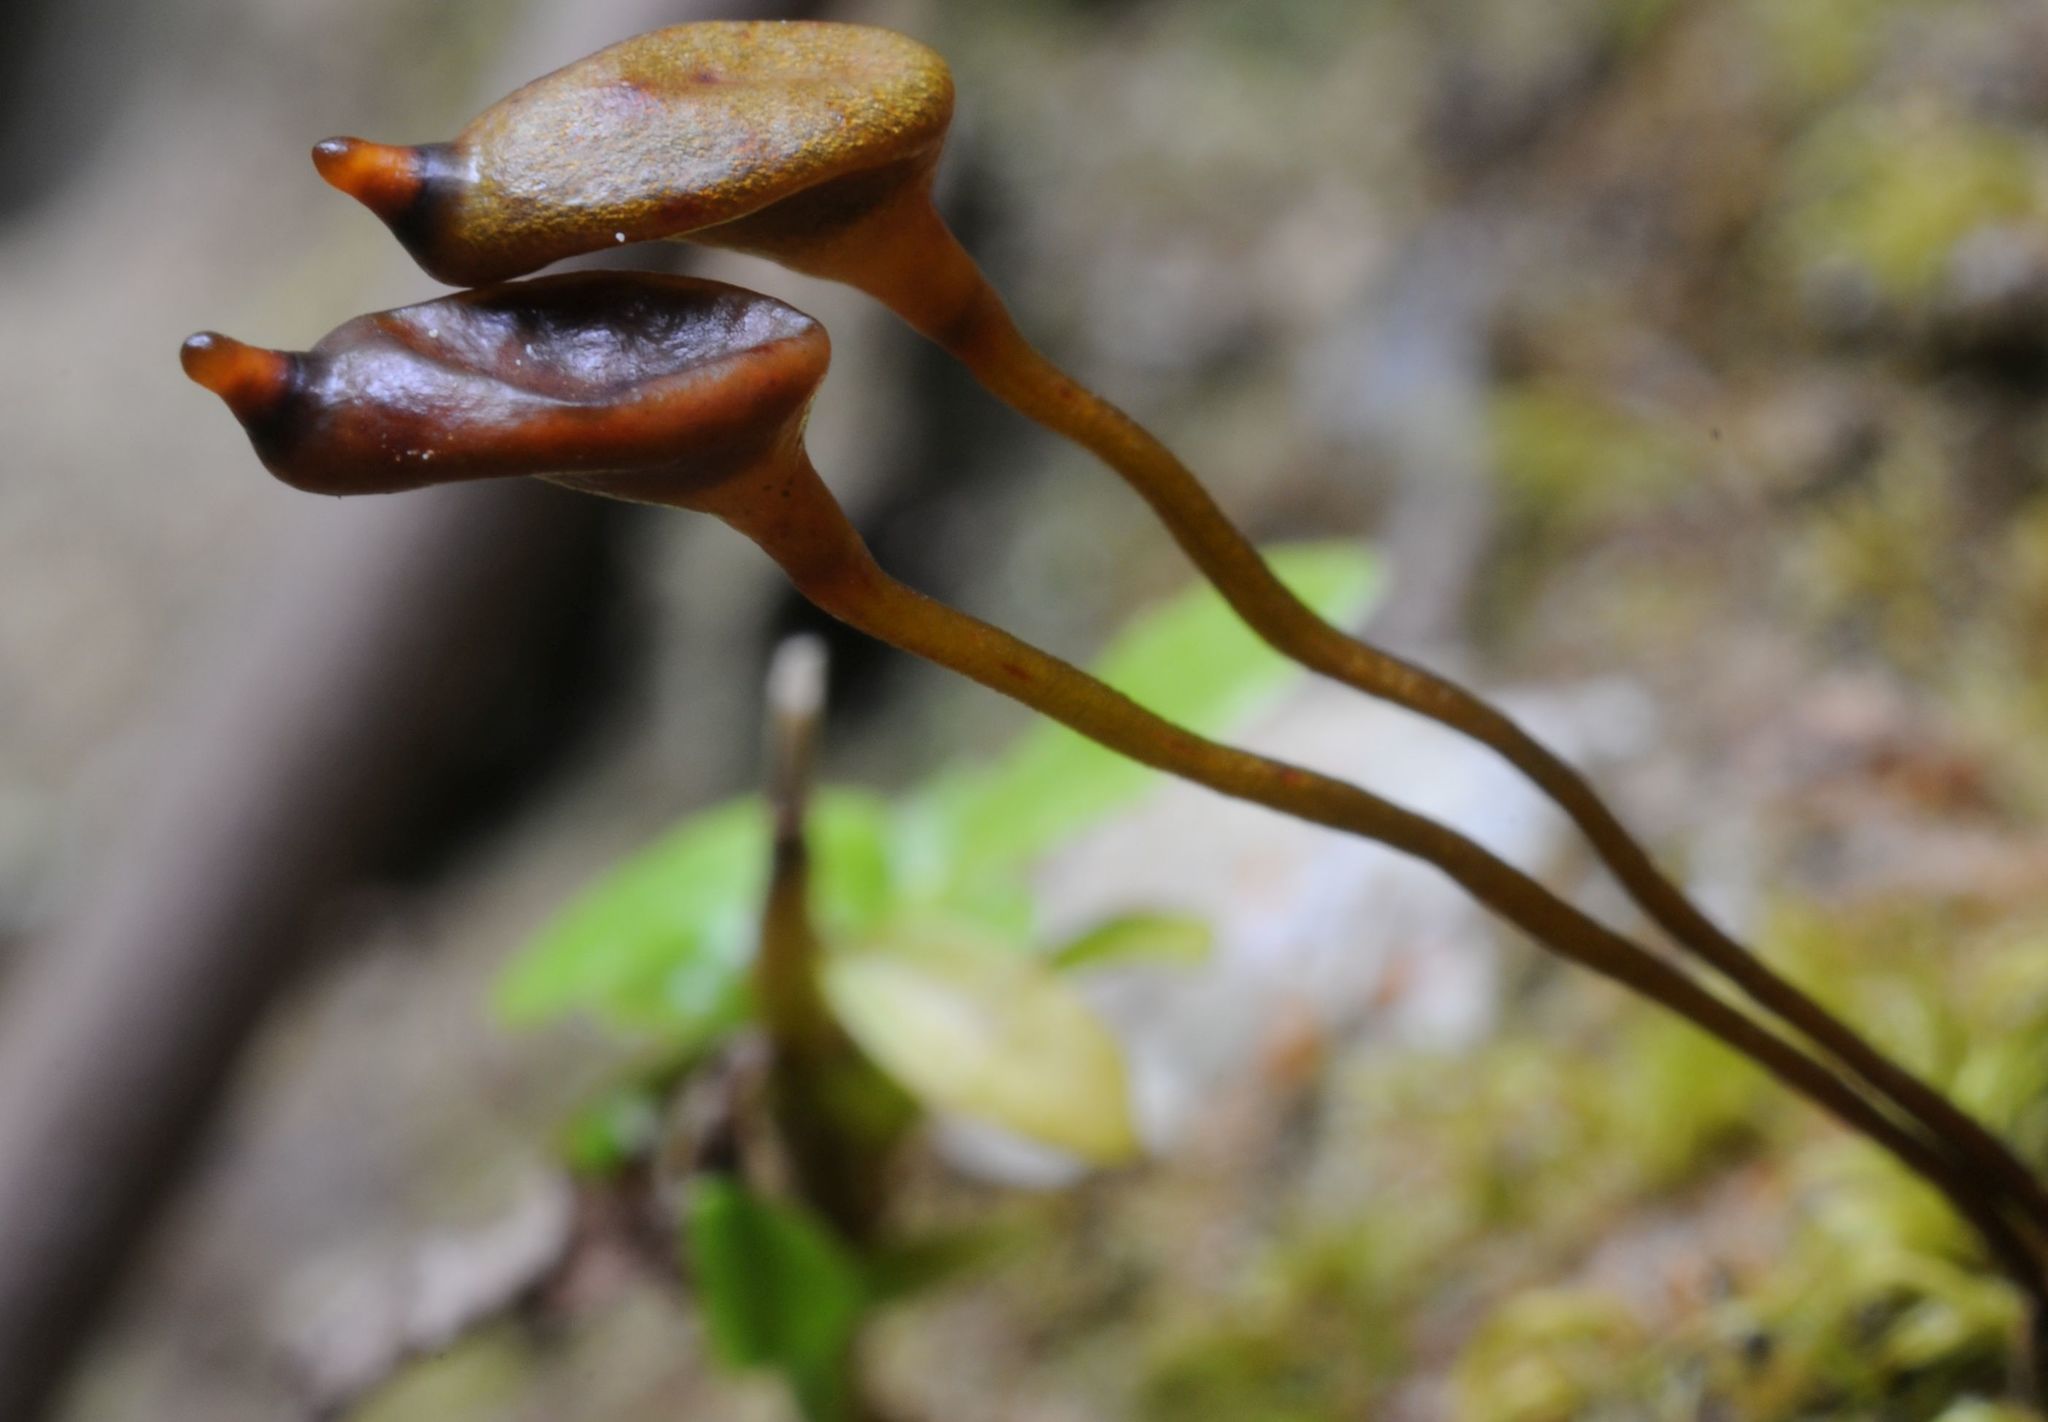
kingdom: Plantae
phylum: Bryophyta
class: Bryopsida
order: Buxbaumiales
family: Buxbaumiaceae
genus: Buxbaumia
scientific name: Buxbaumia aphylla
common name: Brown shield-moss
